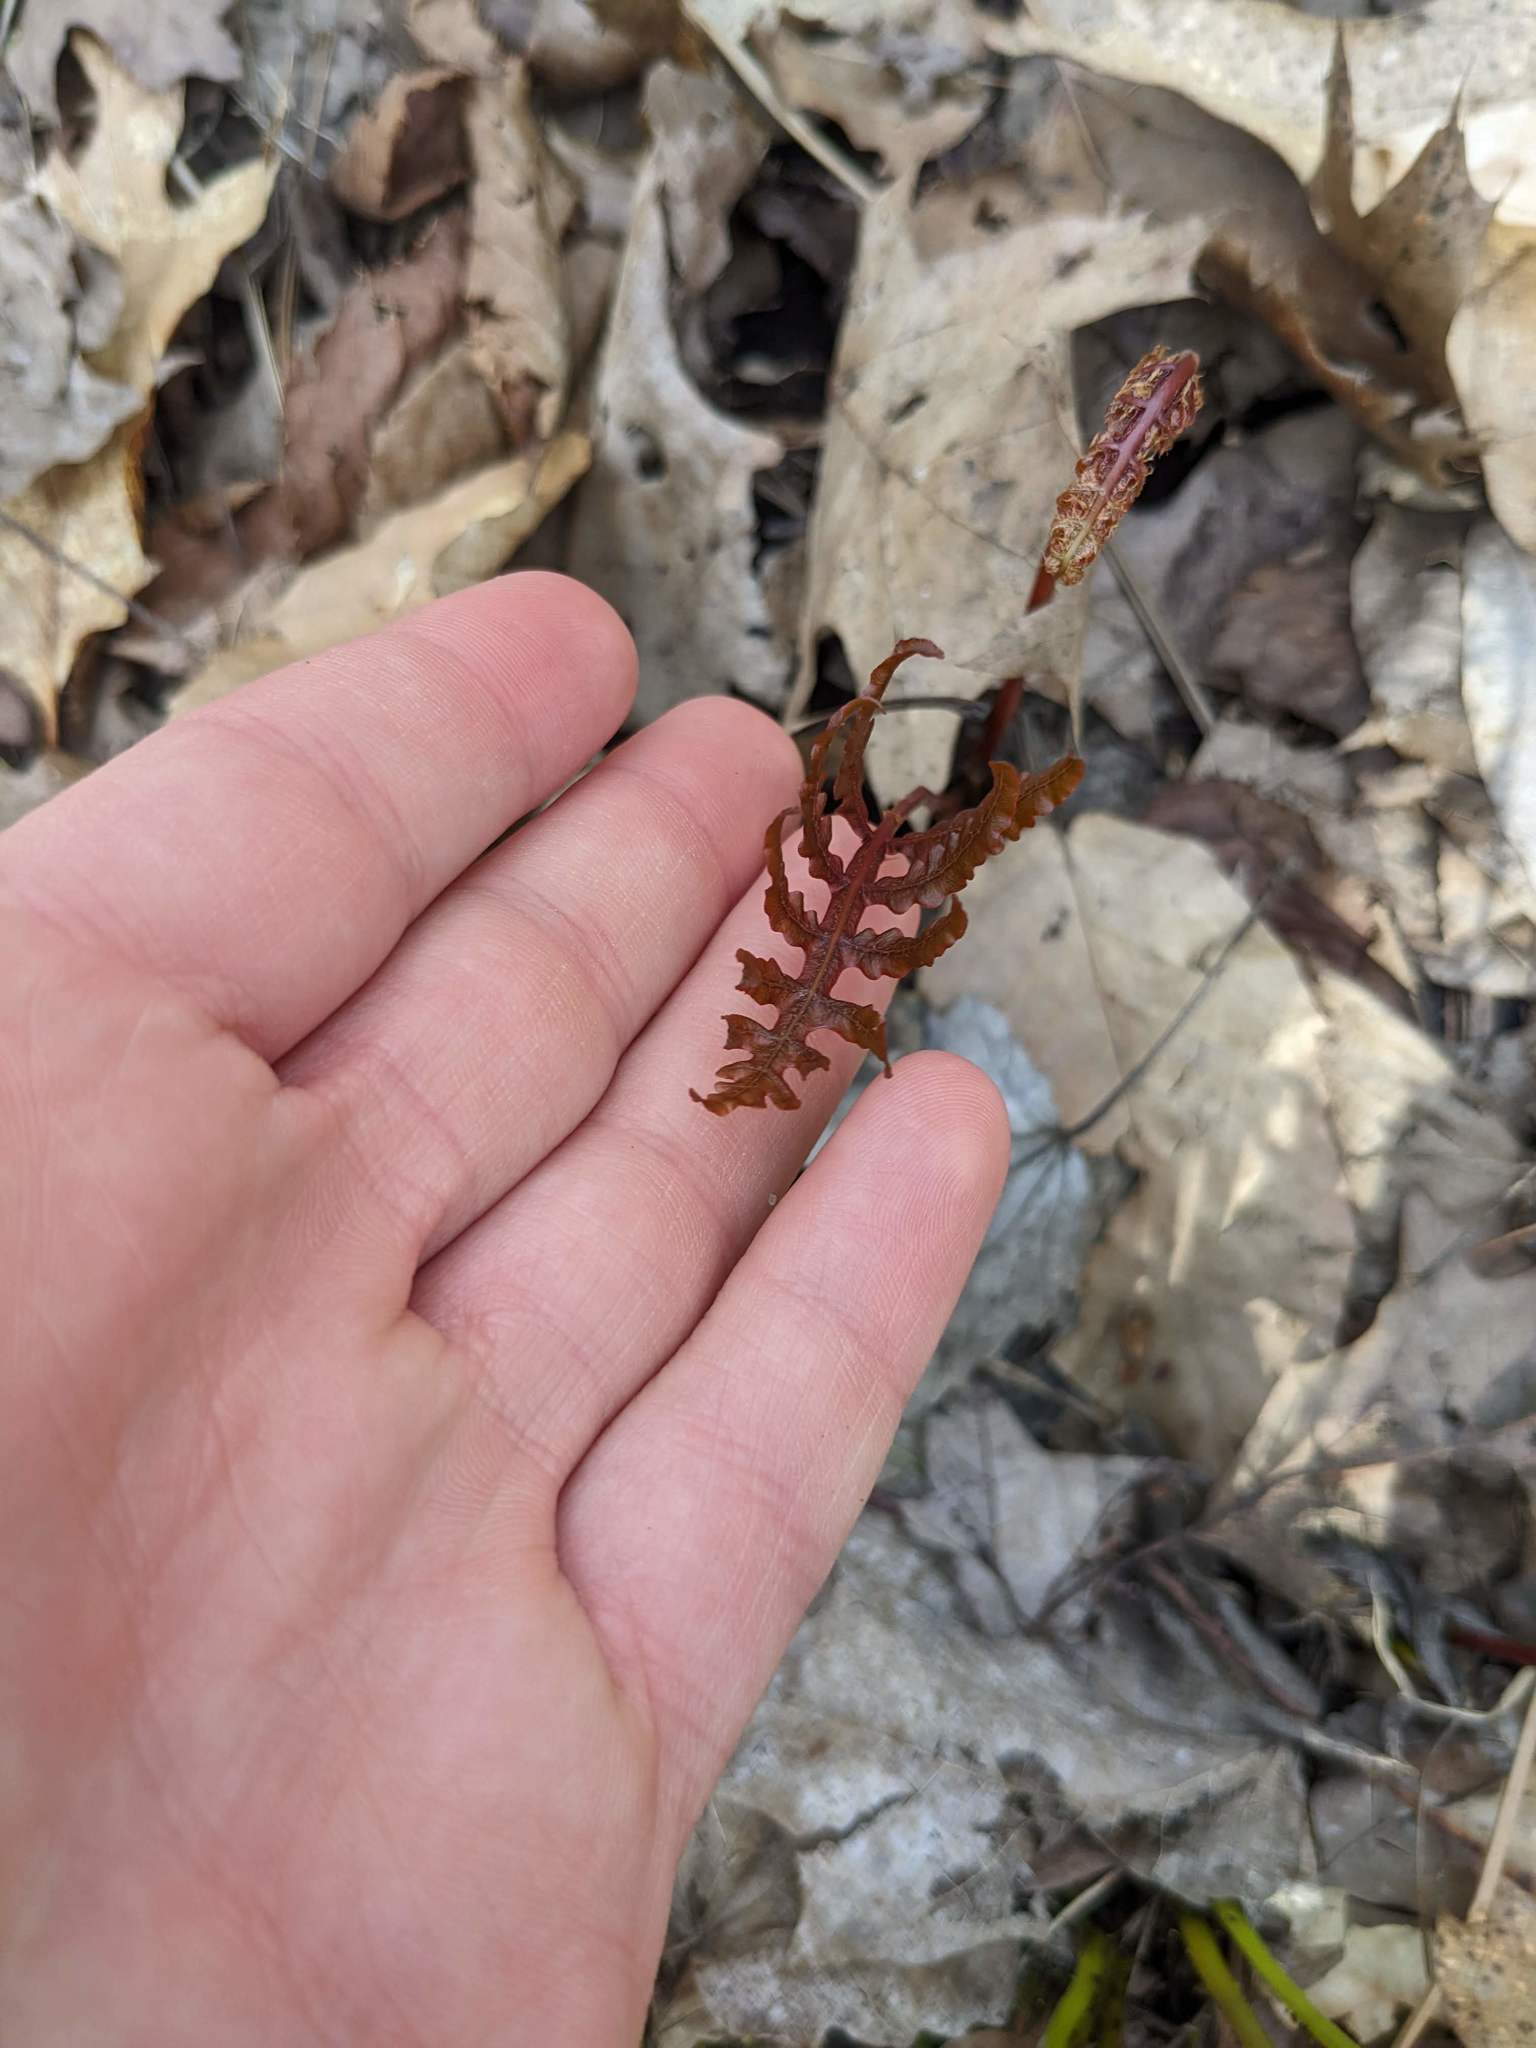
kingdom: Plantae
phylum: Tracheophyta
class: Polypodiopsida
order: Polypodiales
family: Onocleaceae
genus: Onoclea
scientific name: Onoclea sensibilis
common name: Sensitive fern
